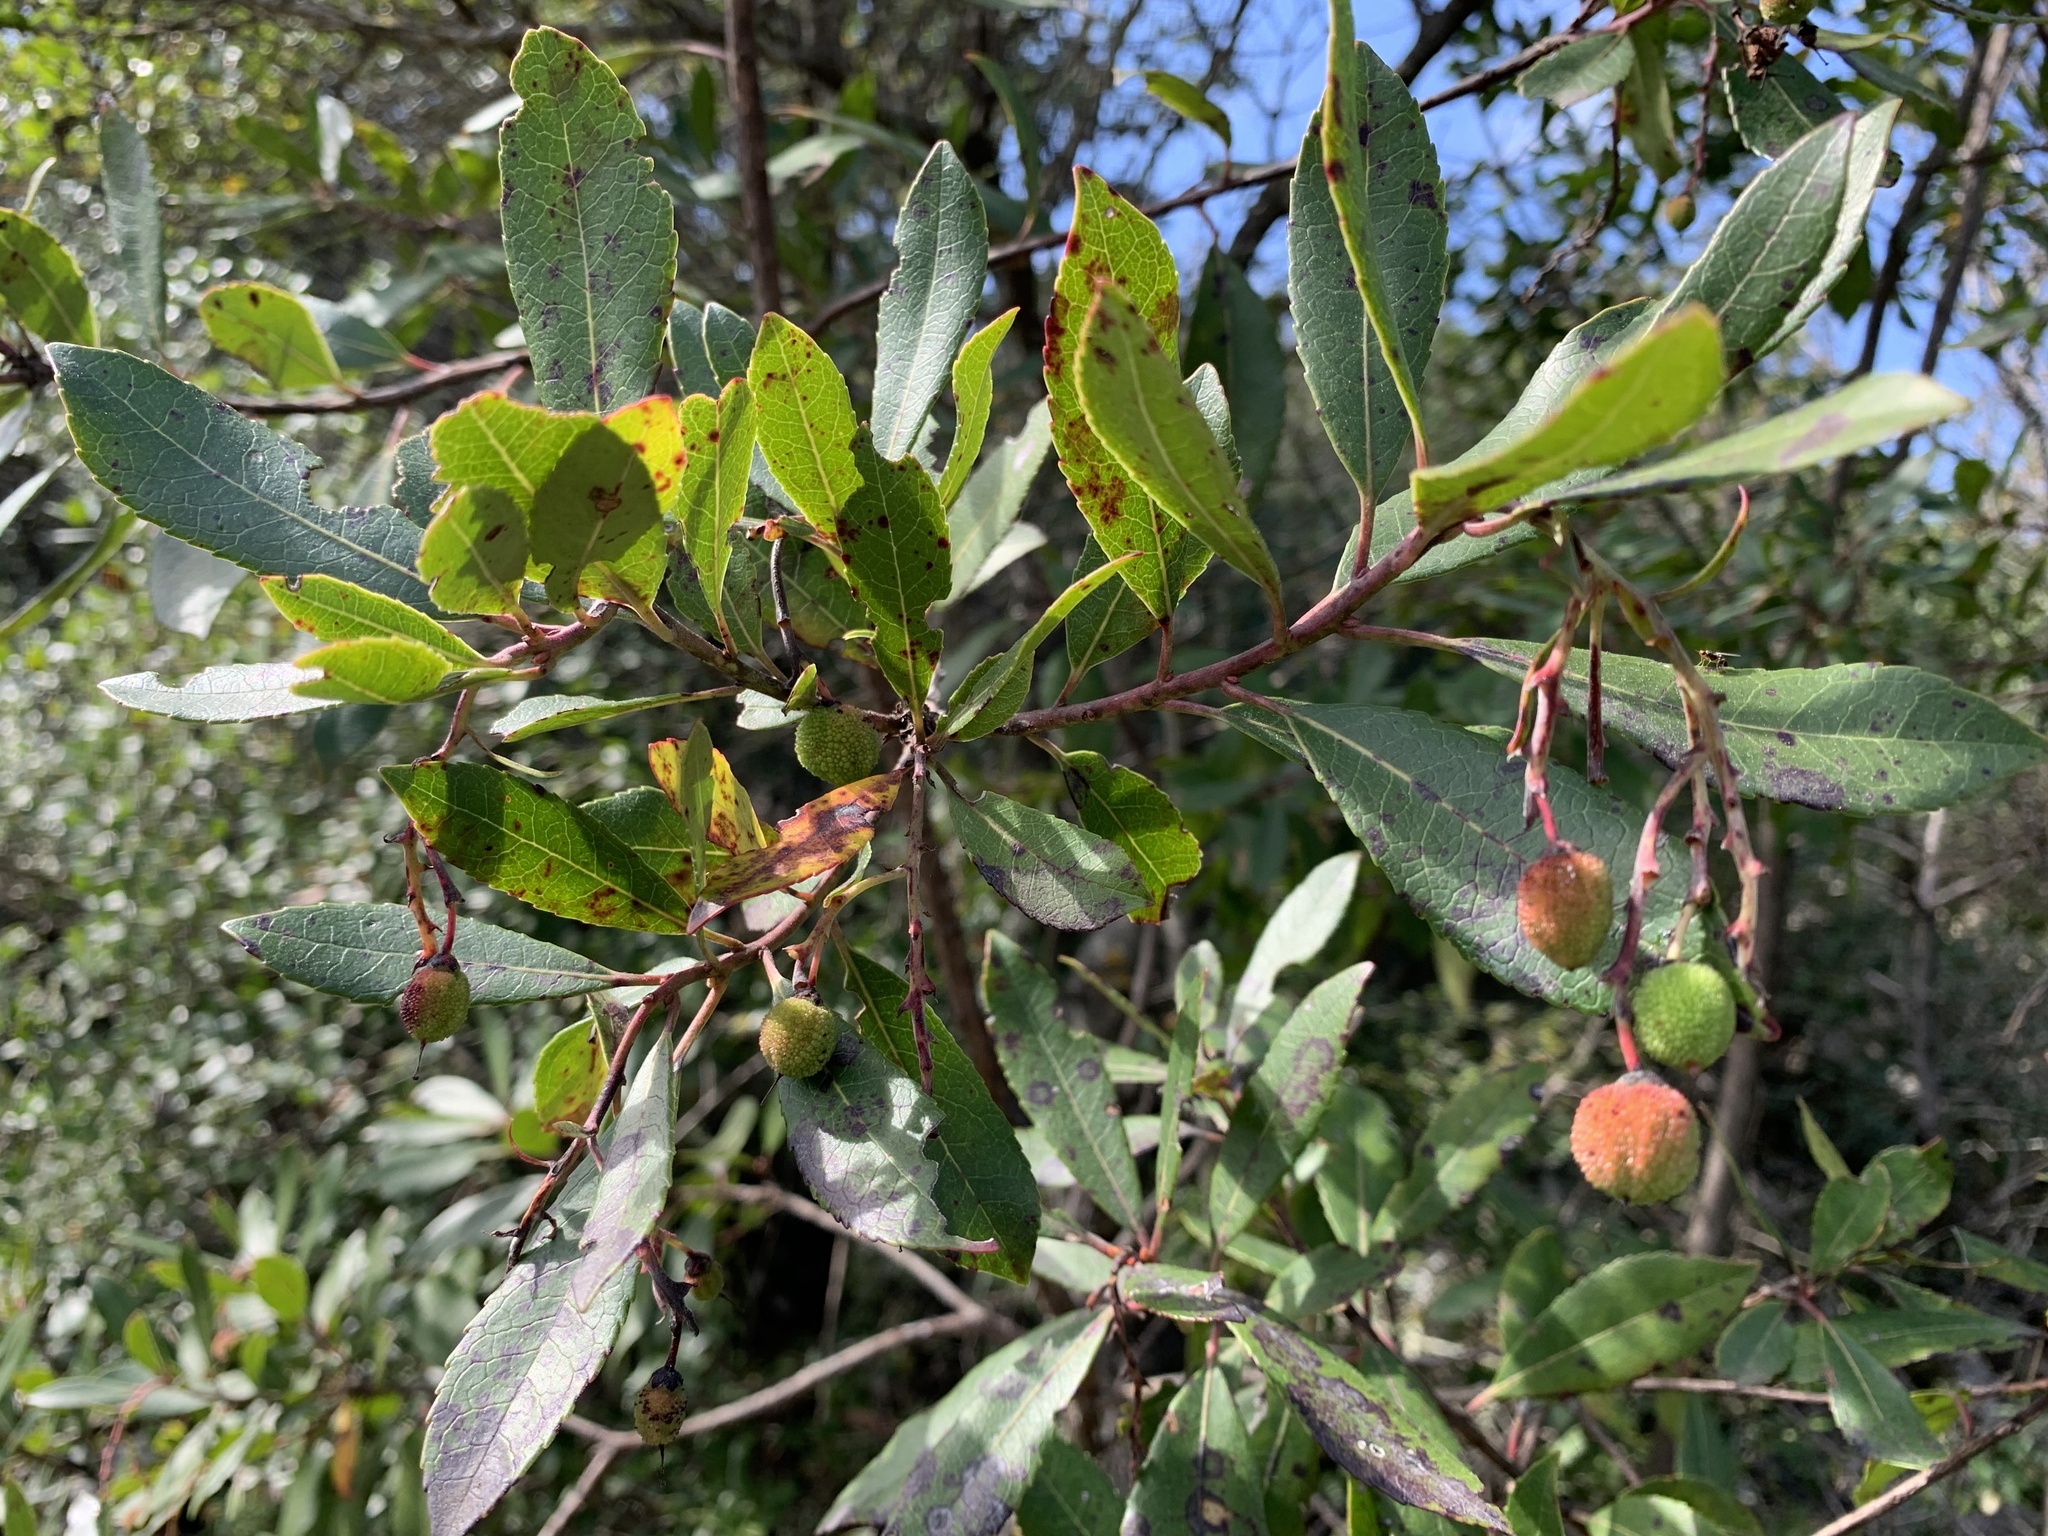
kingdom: Plantae
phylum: Tracheophyta
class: Magnoliopsida
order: Ericales
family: Ericaceae
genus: Arbutus
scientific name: Arbutus unedo
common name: Strawberry-tree
